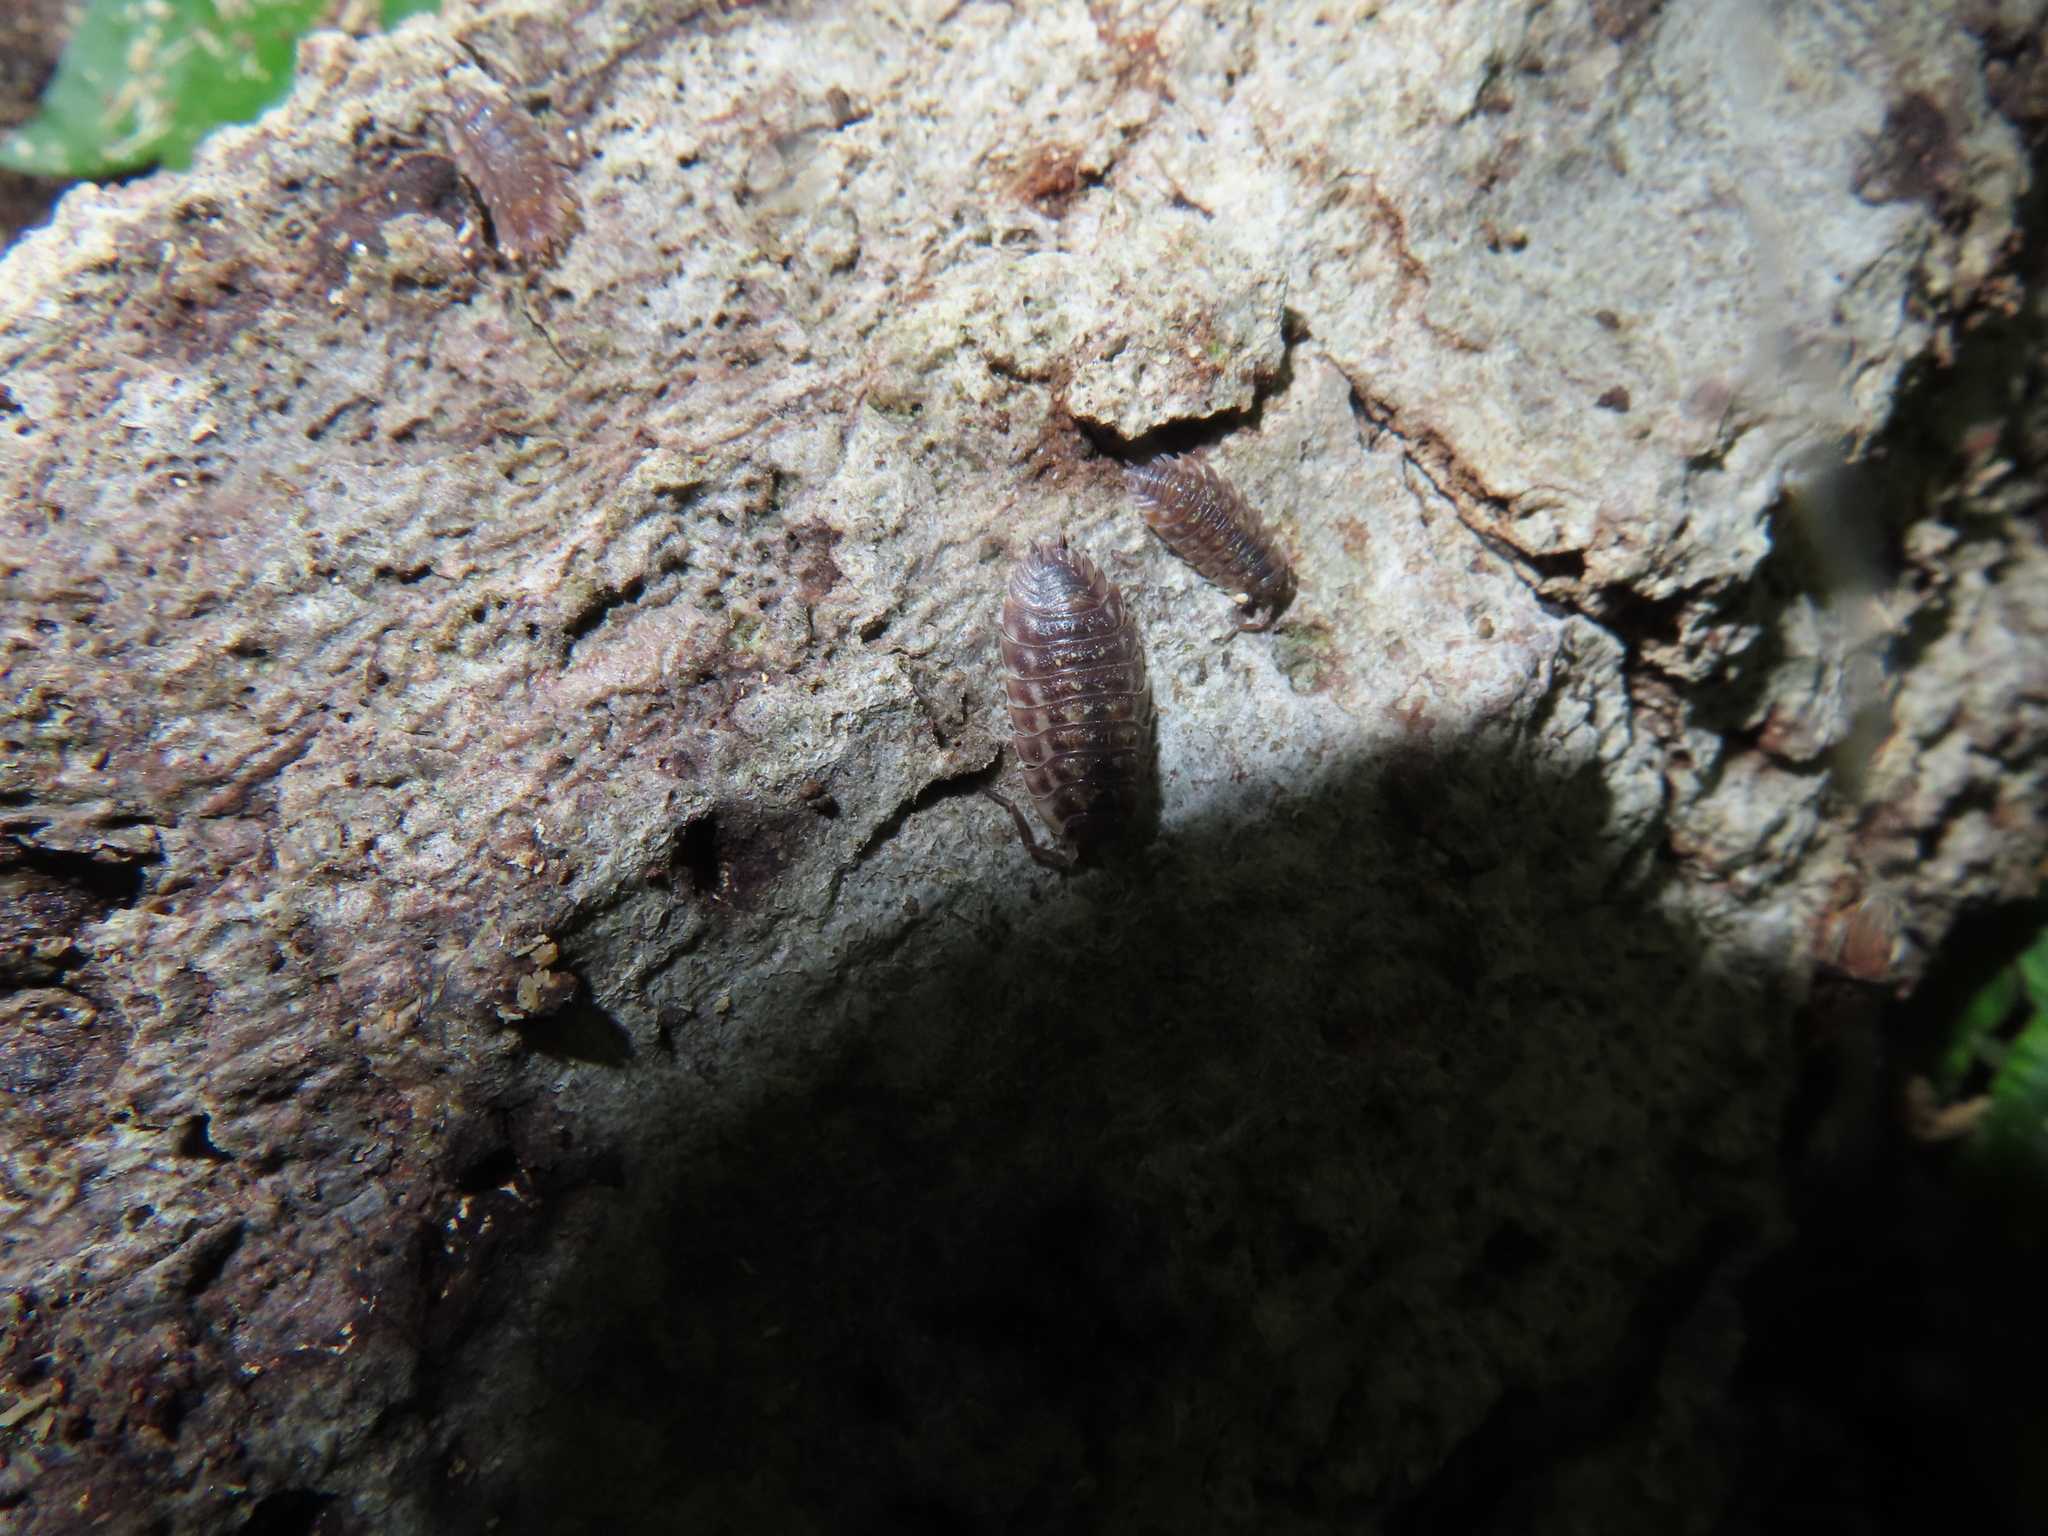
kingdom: Animalia
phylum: Arthropoda
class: Malacostraca
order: Isopoda
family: Oniscidae
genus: Oniscus
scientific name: Oniscus asellus
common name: Common shiny woodlouse
